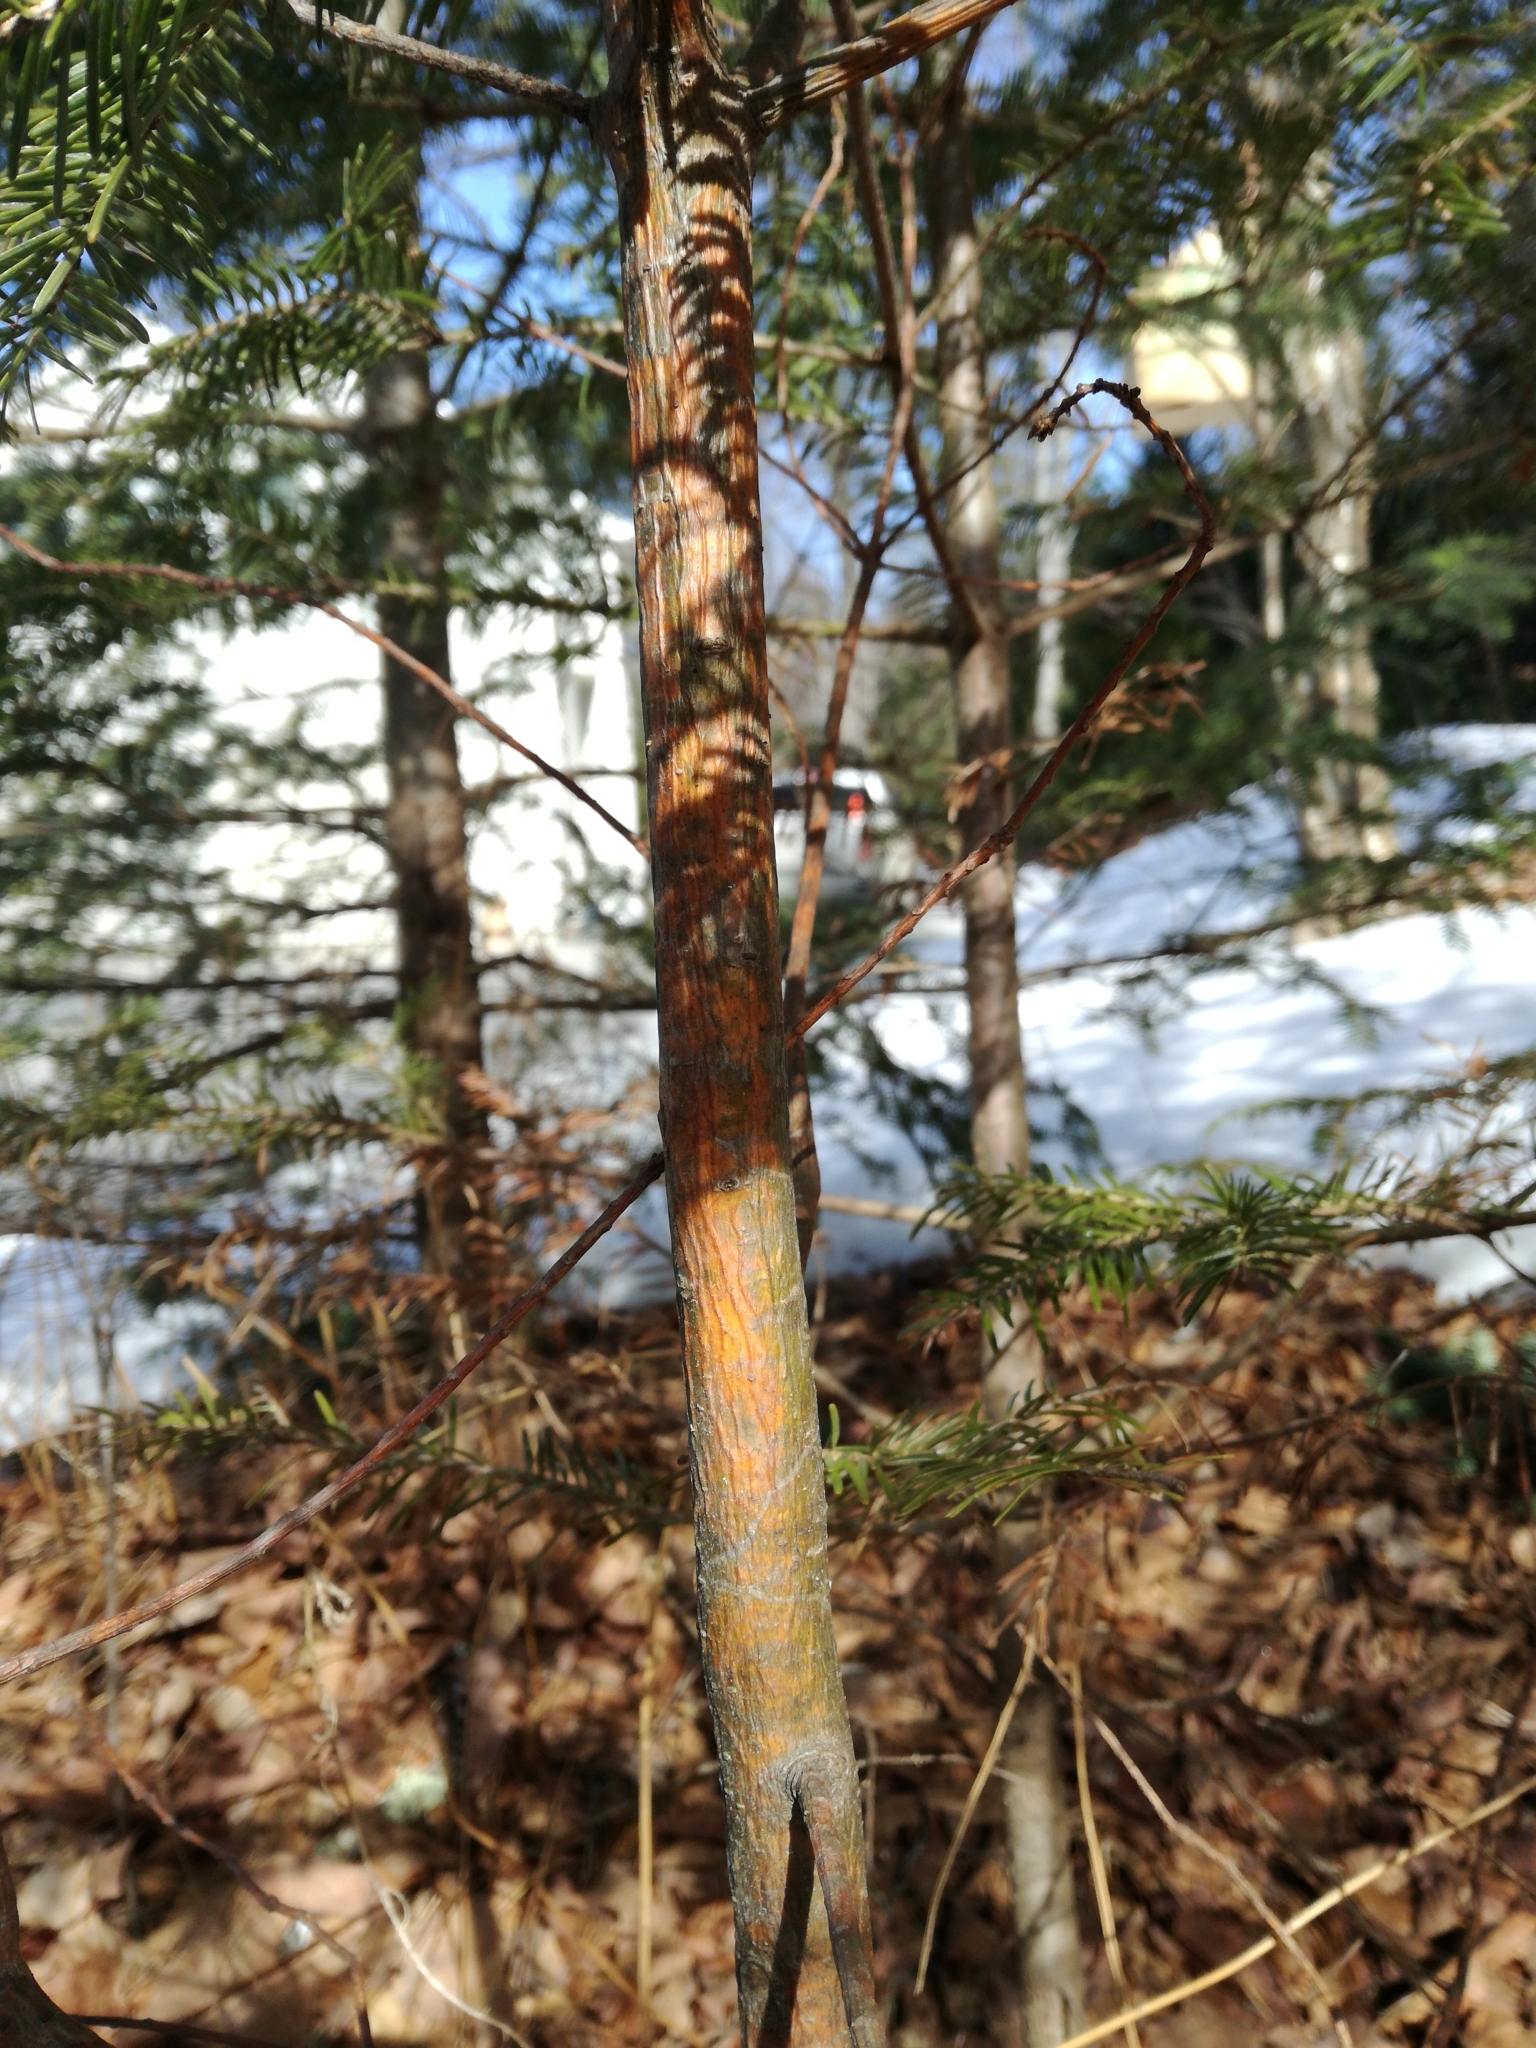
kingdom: Plantae
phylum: Tracheophyta
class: Pinopsida
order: Pinales
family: Pinaceae
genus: Pinus
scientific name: Pinus strobus
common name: Weymouth pine
